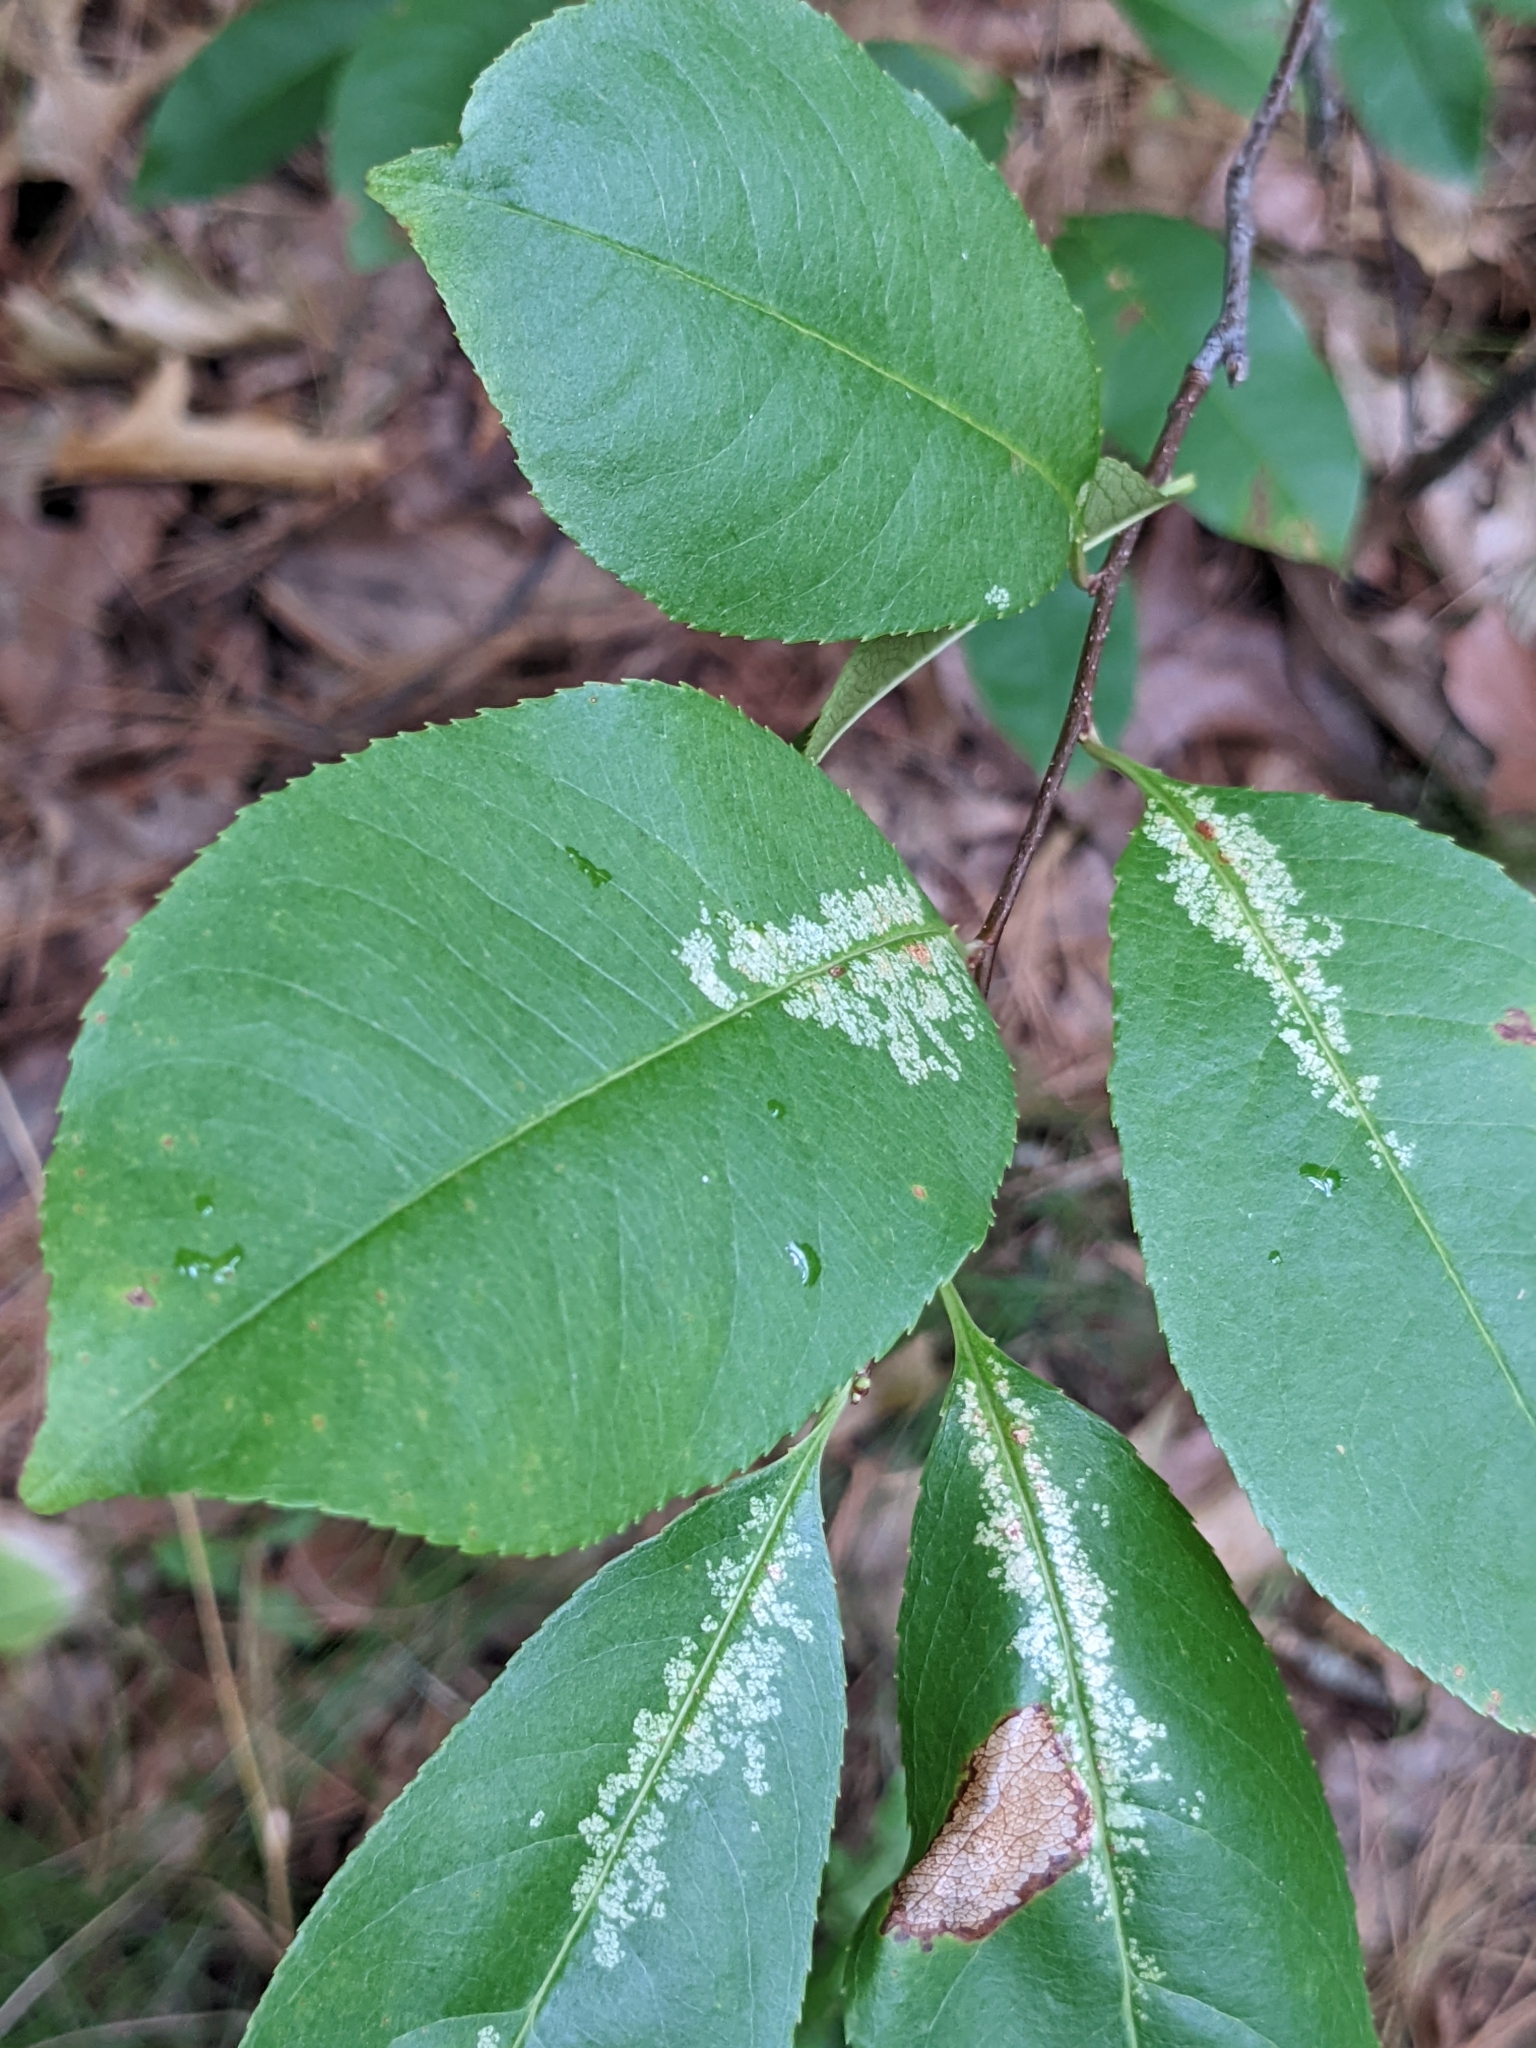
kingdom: Plantae
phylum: Tracheophyta
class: Magnoliopsida
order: Rosales
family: Rosaceae
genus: Prunus
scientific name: Prunus serotina
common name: Black cherry
